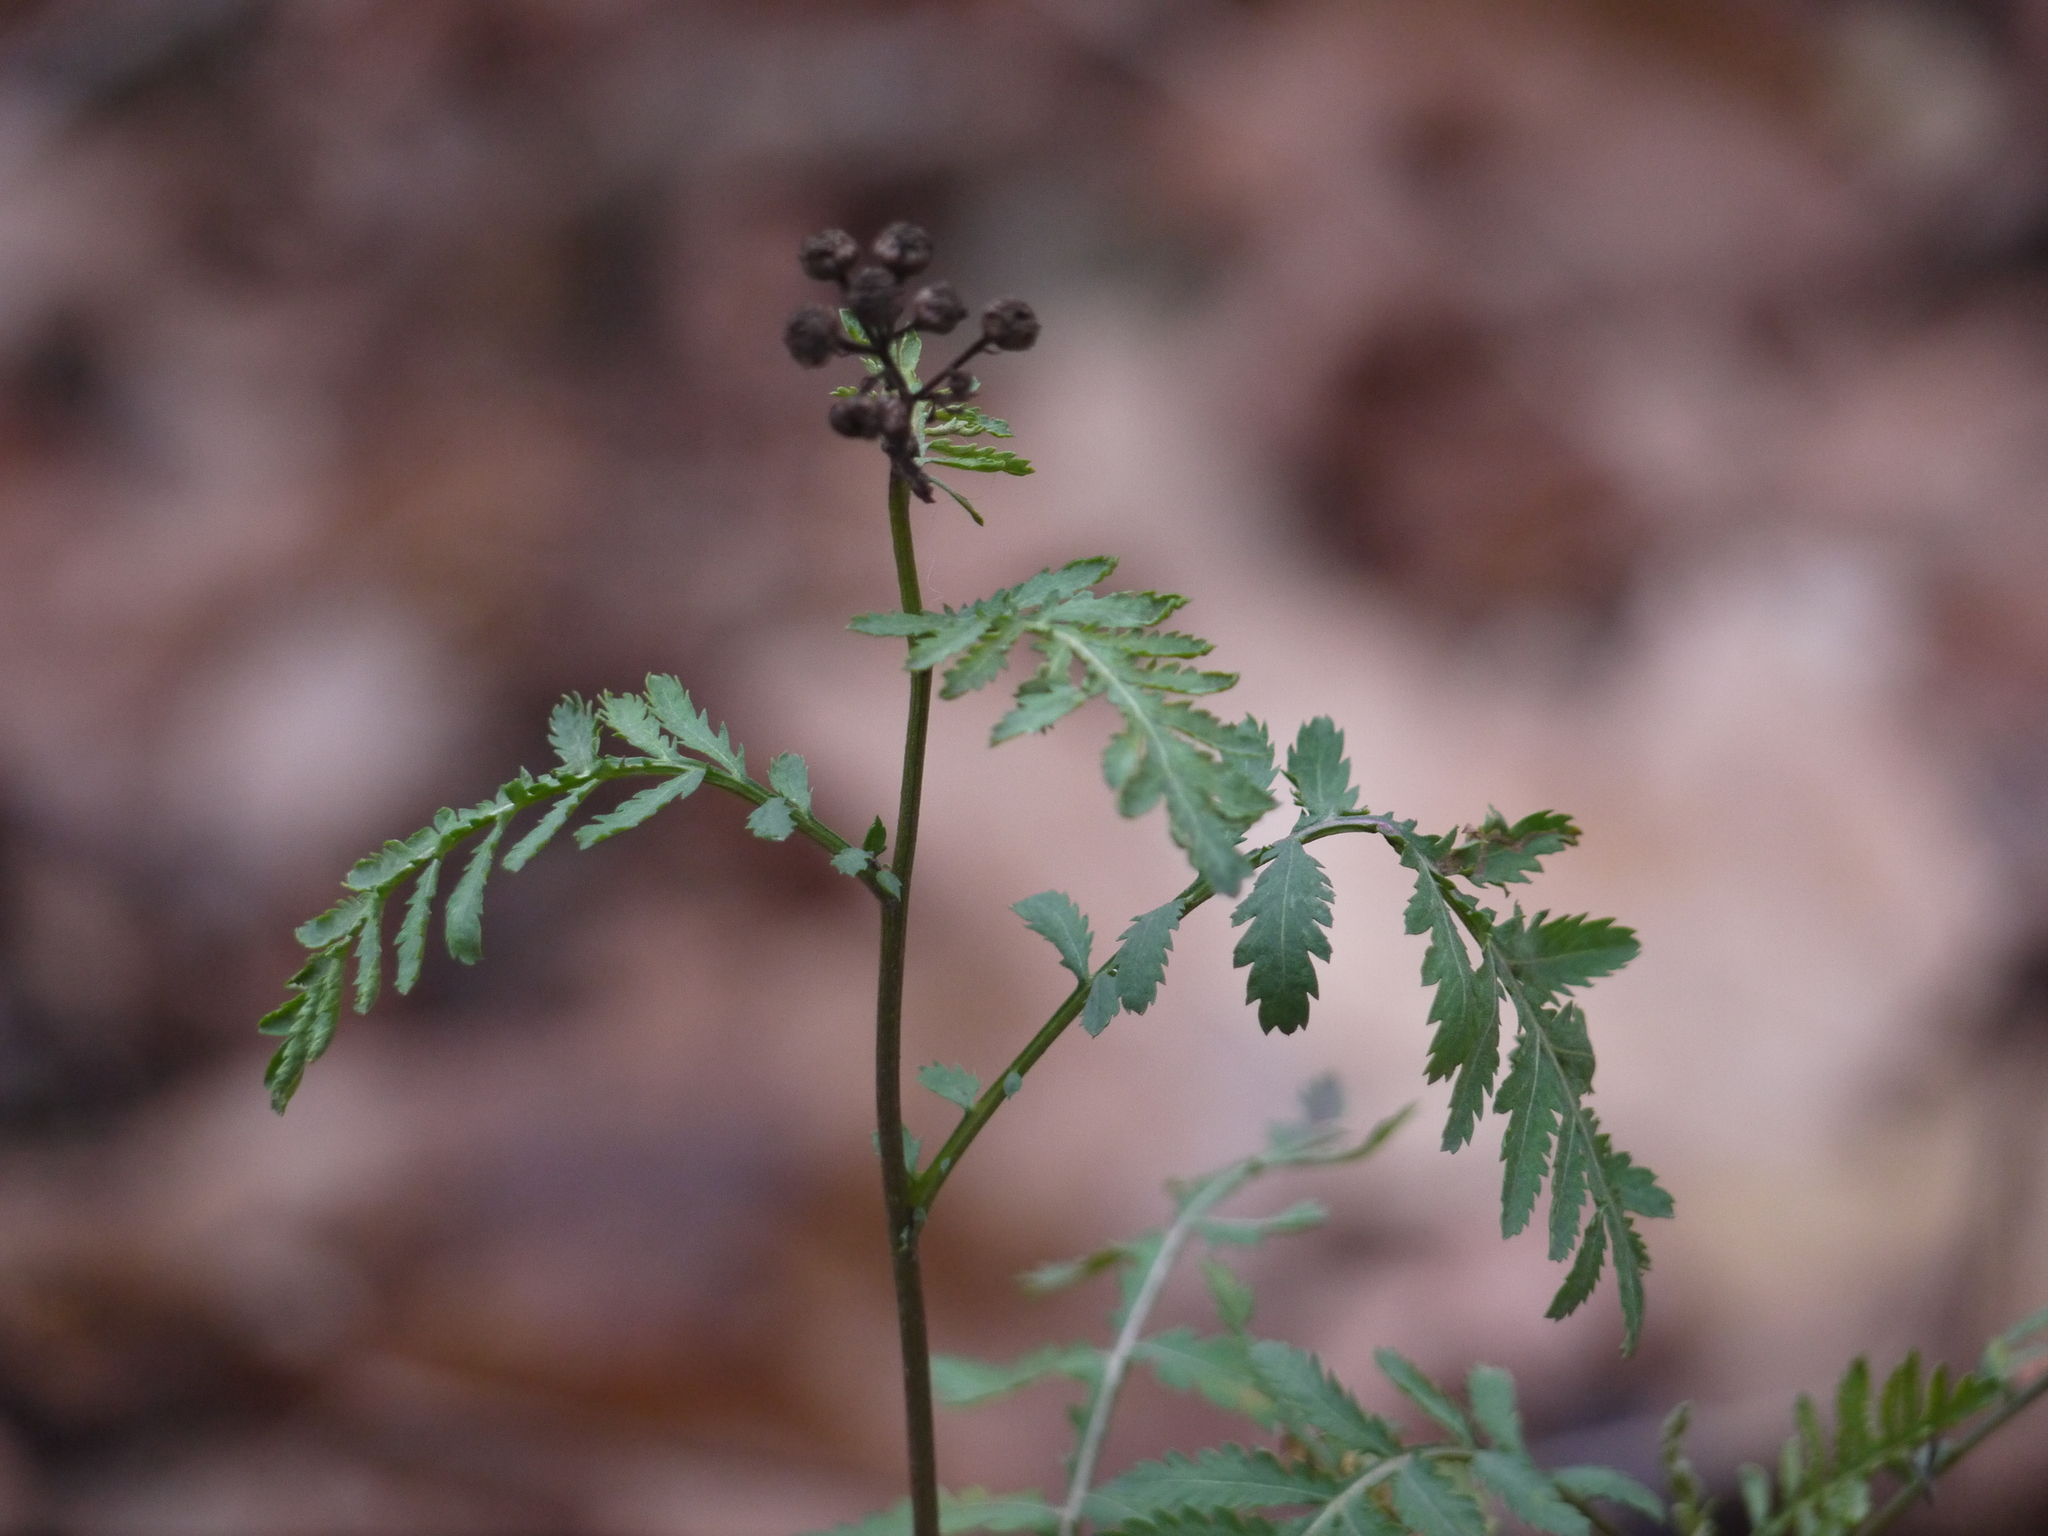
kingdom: Plantae
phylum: Tracheophyta
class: Magnoliopsida
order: Asterales
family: Asteraceae
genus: Tanacetum
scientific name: Tanacetum vulgare
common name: Common tansy
